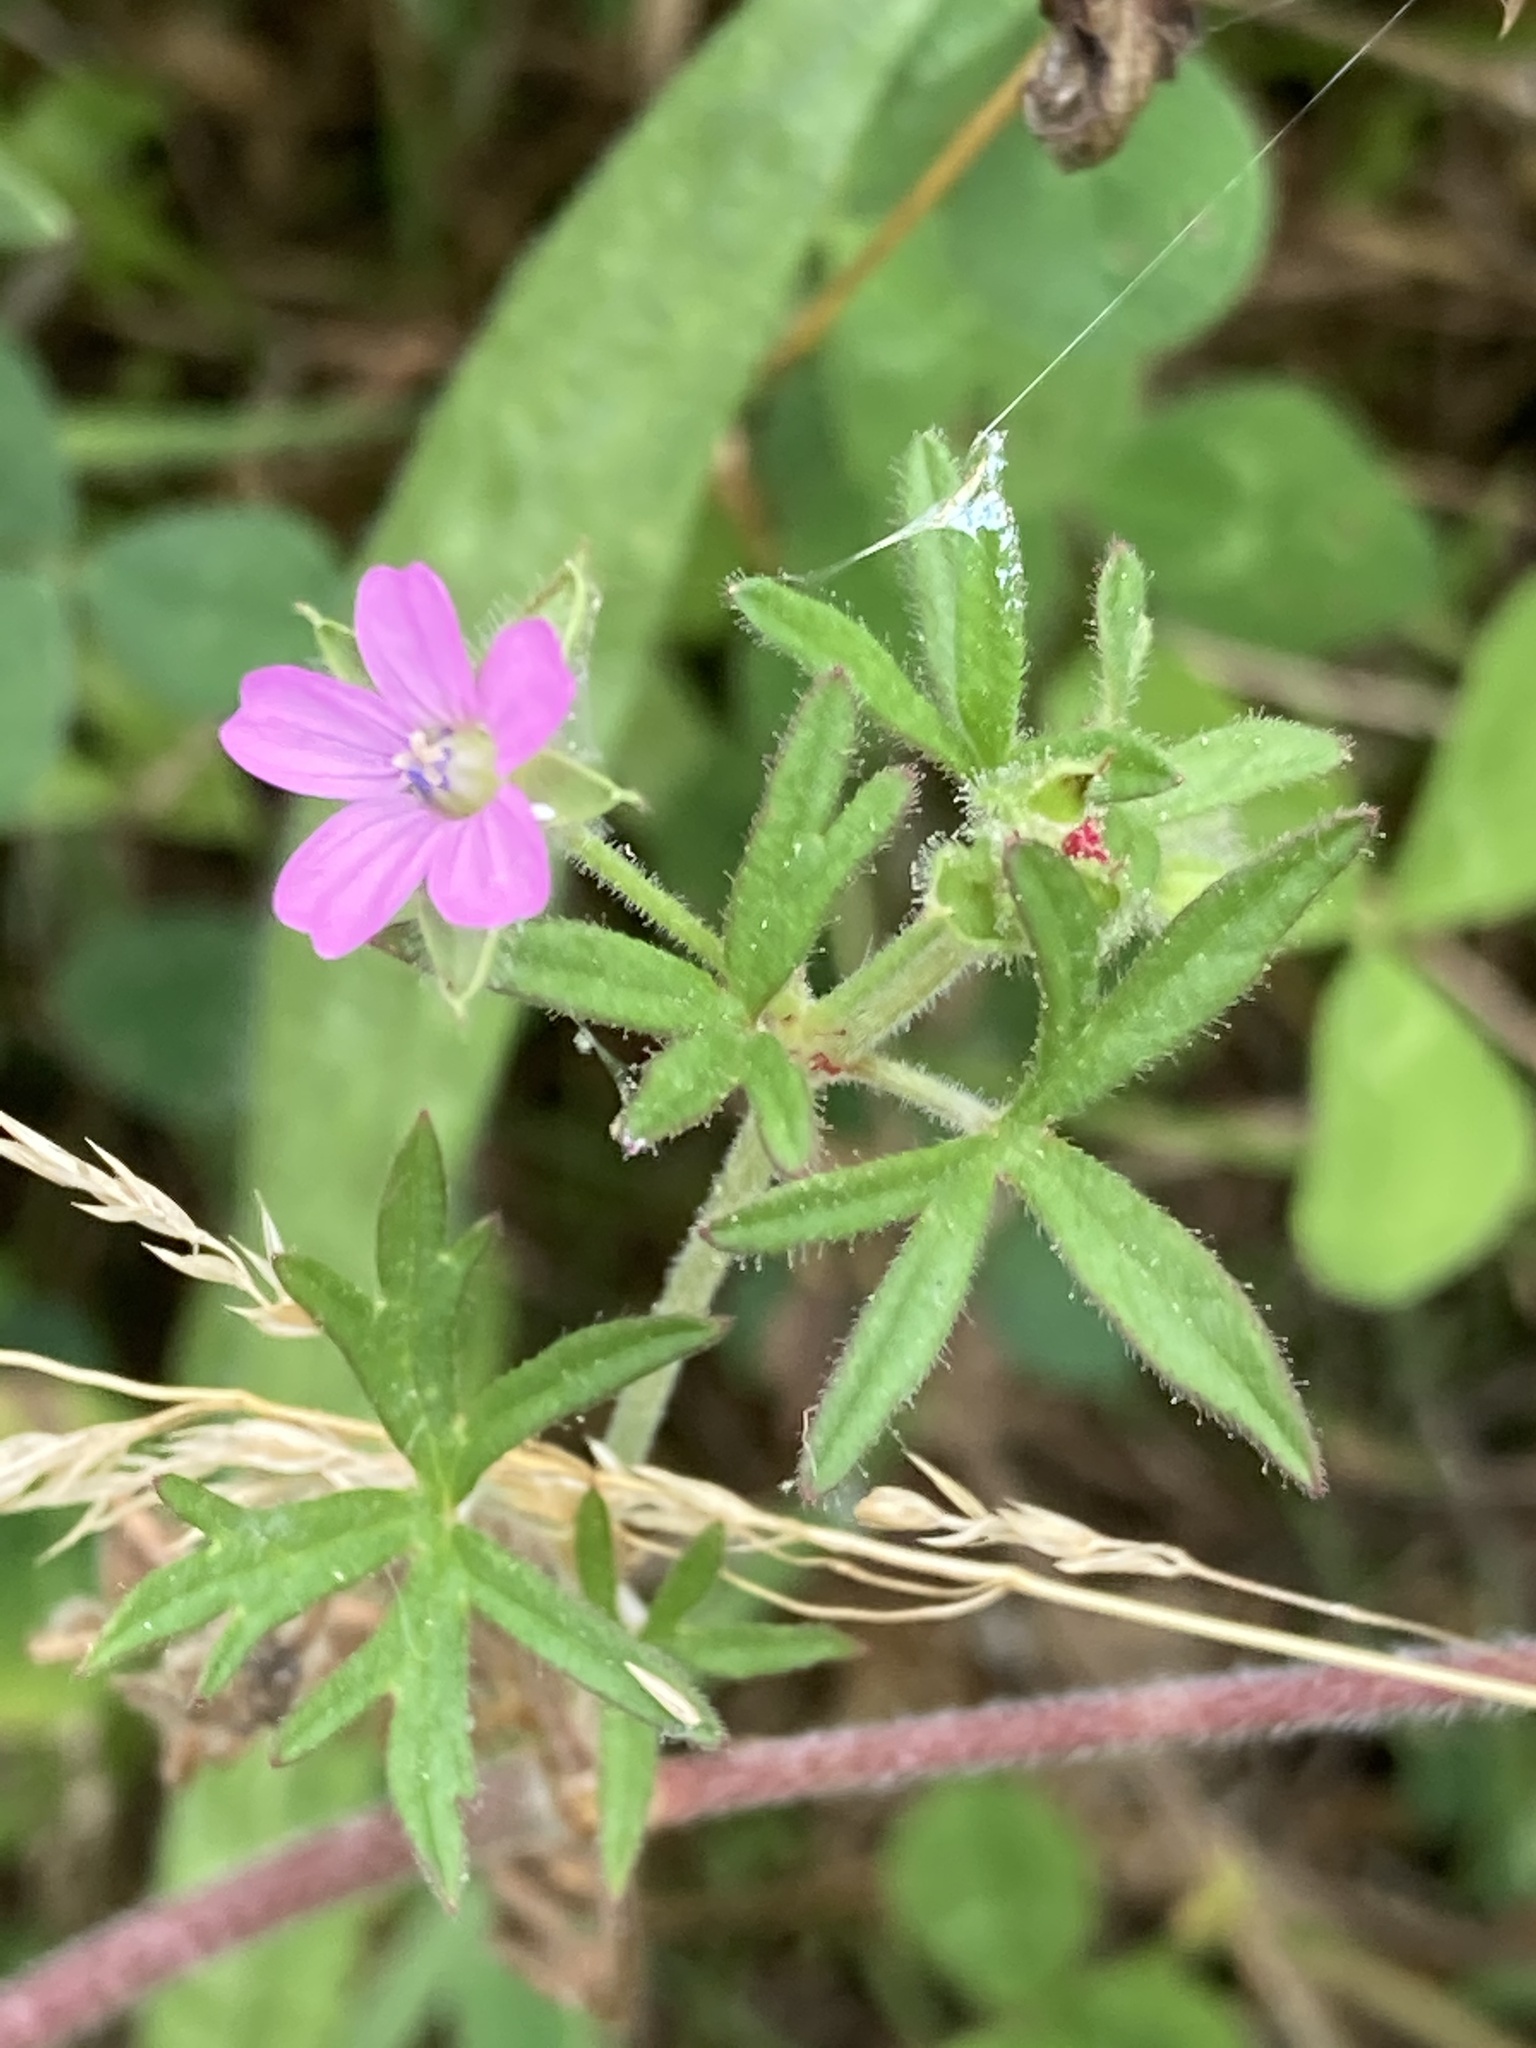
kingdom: Plantae
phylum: Tracheophyta
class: Magnoliopsida
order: Geraniales
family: Geraniaceae
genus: Geranium
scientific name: Geranium dissectum
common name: Cut-leaved crane's-bill
